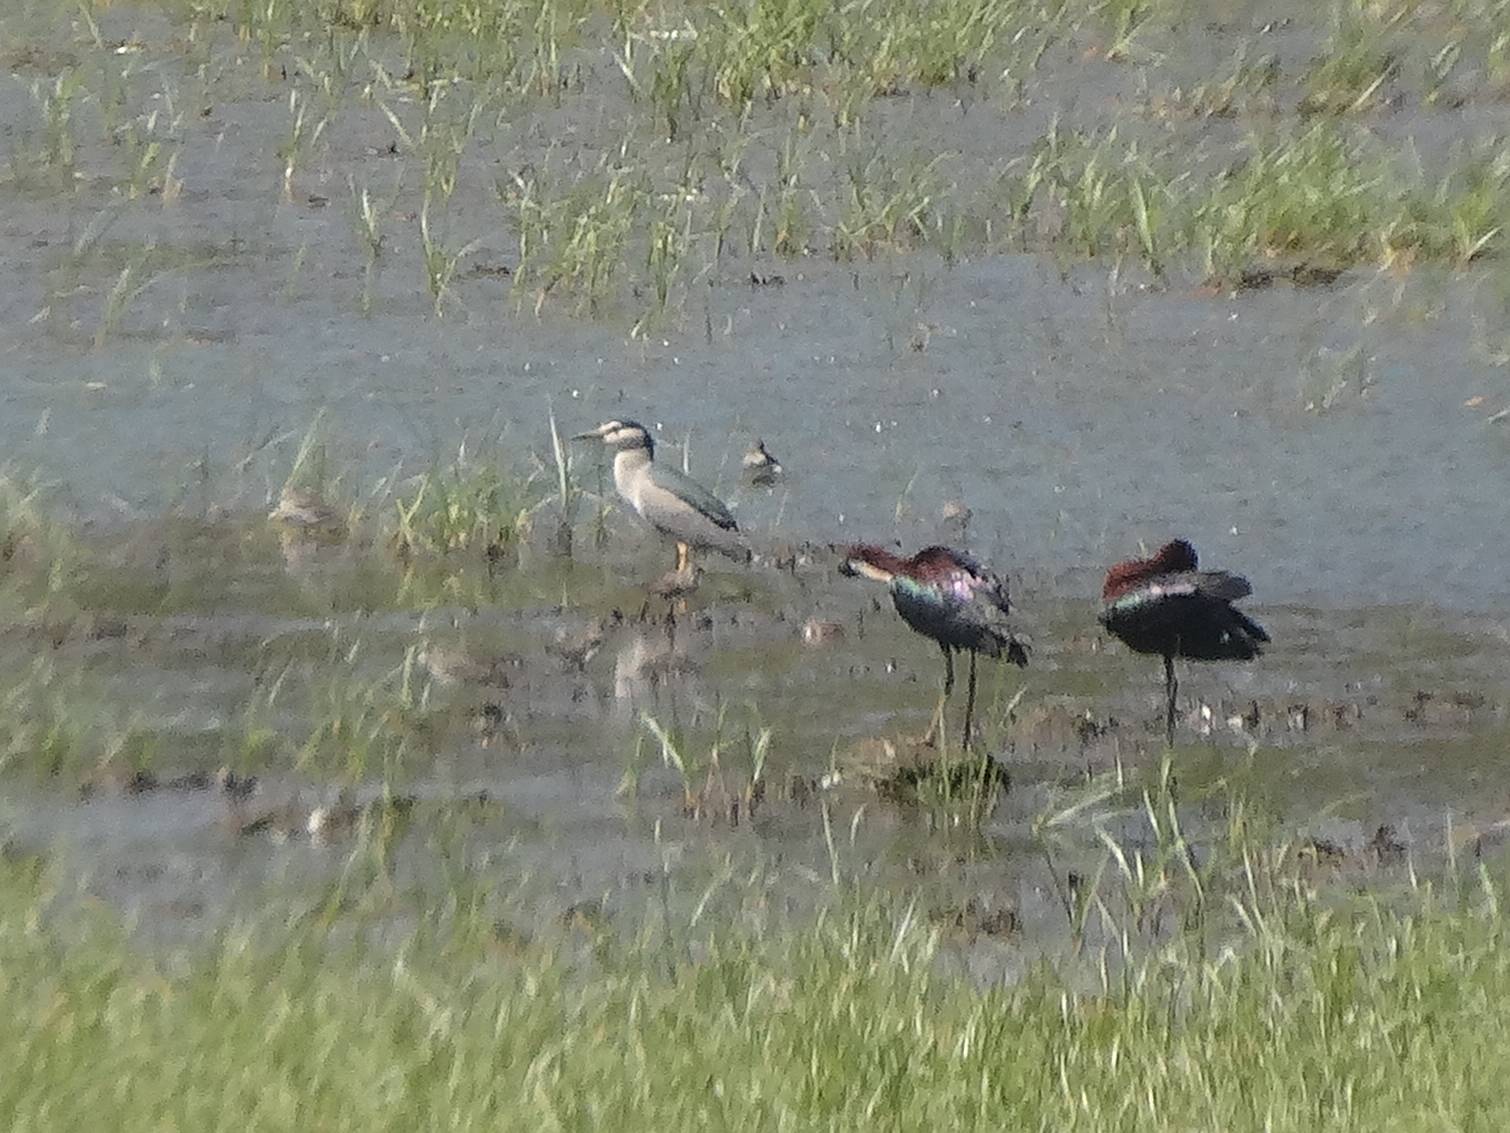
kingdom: Animalia
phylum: Chordata
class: Aves
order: Pelecaniformes
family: Ardeidae
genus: Nycticorax
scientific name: Nycticorax nycticorax
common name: Black-crowned night heron
